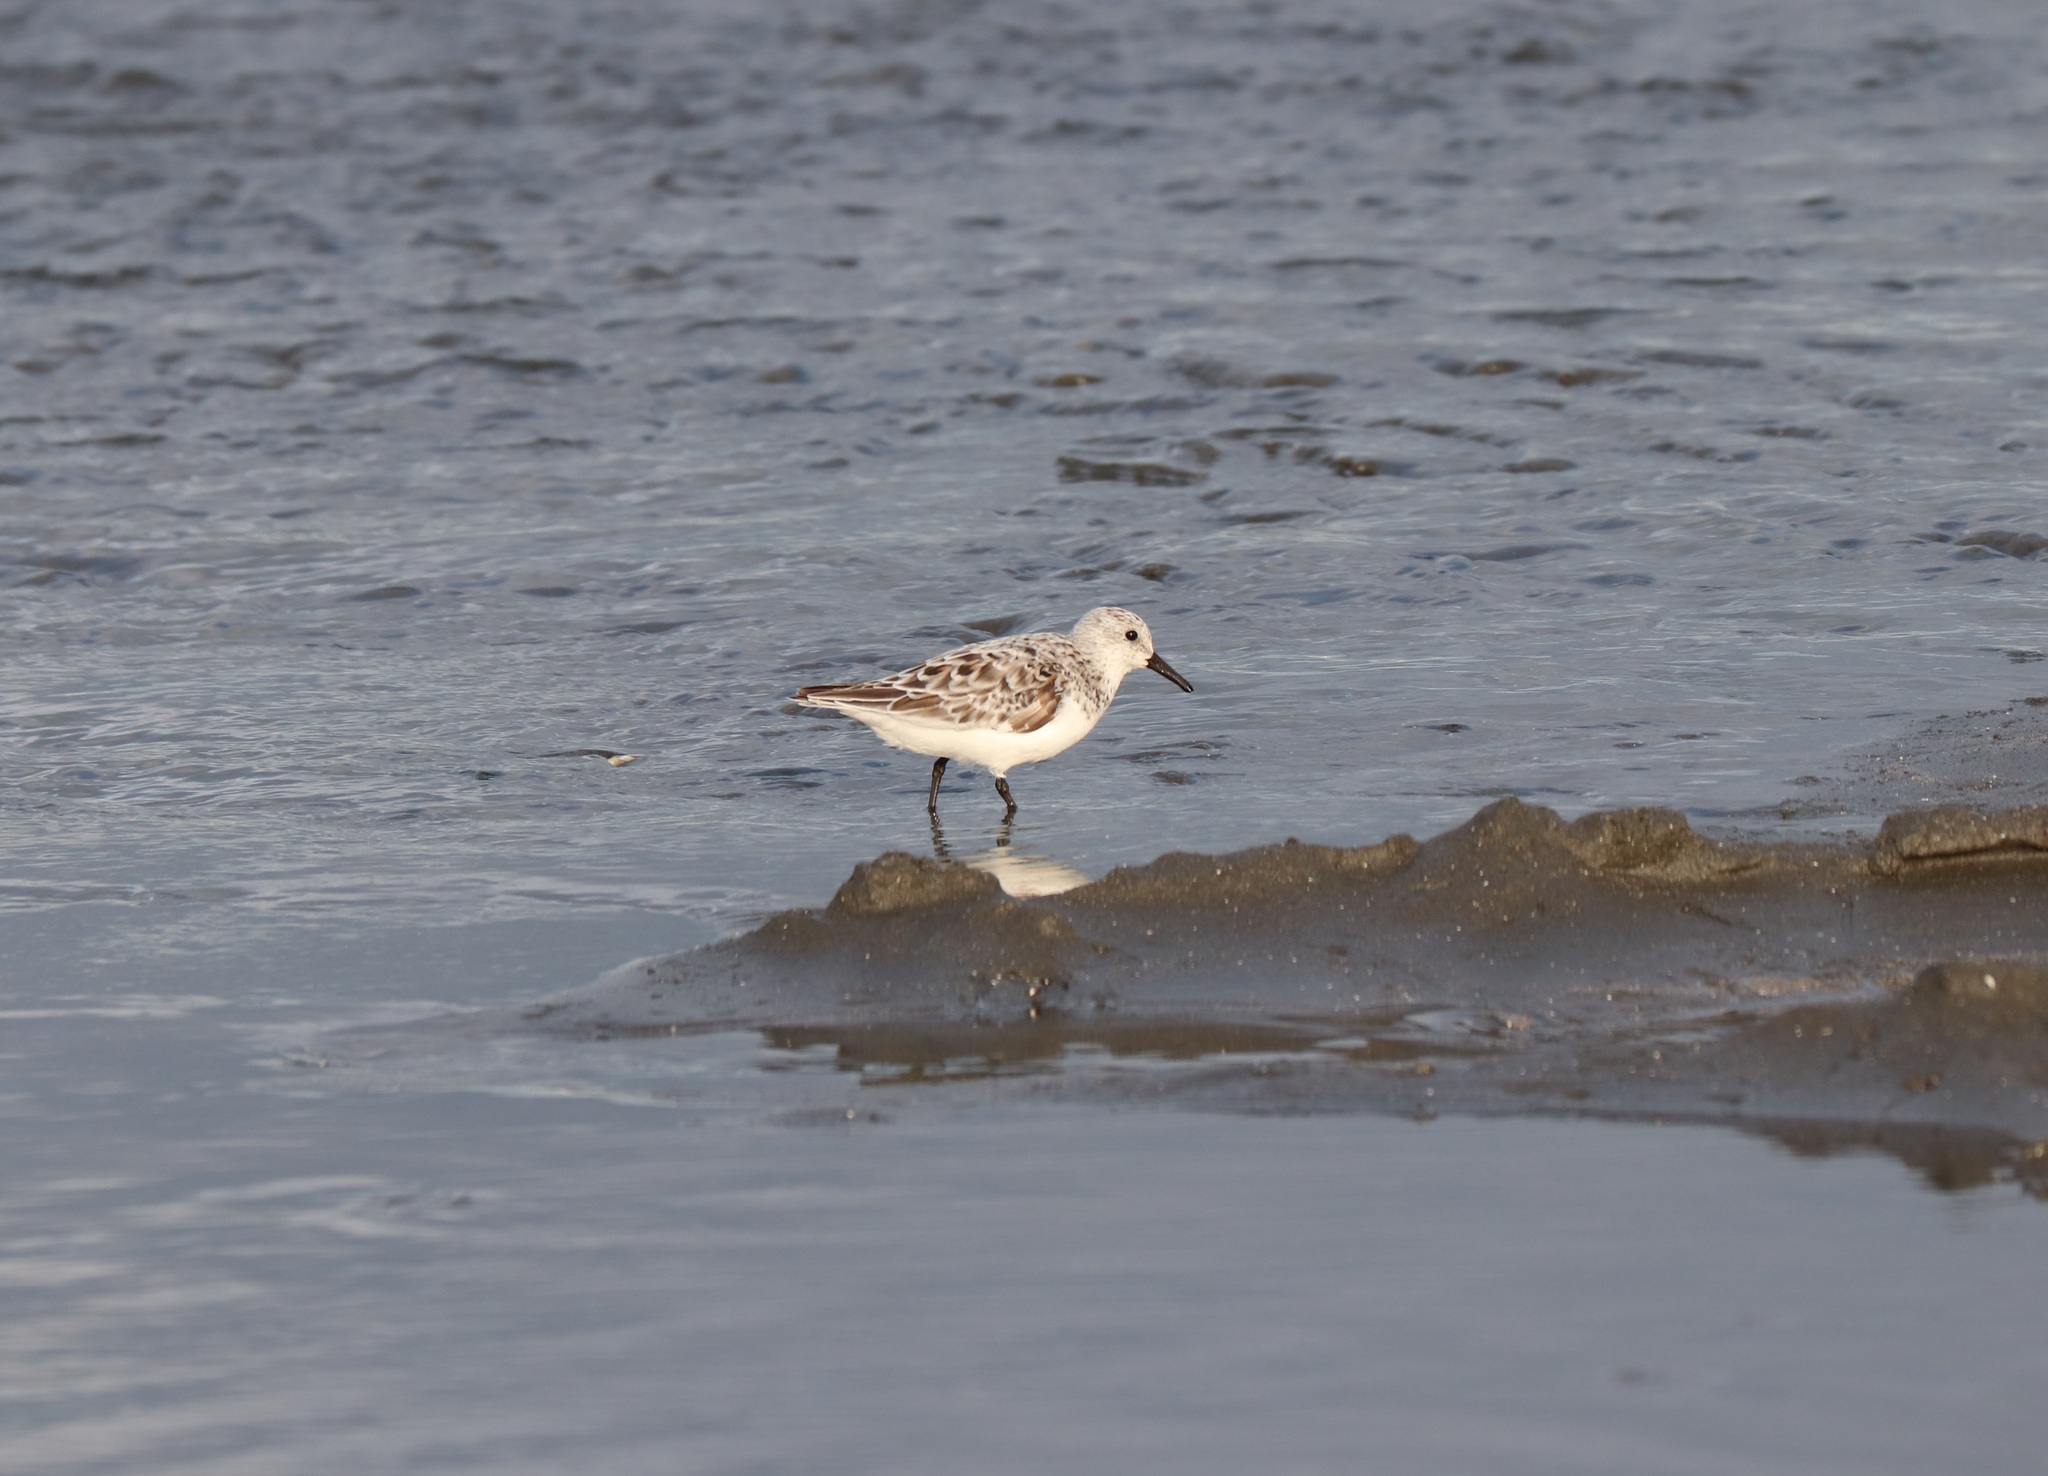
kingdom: Animalia
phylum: Chordata
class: Aves
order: Charadriiformes
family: Scolopacidae
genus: Calidris
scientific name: Calidris alba
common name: Sanderling
